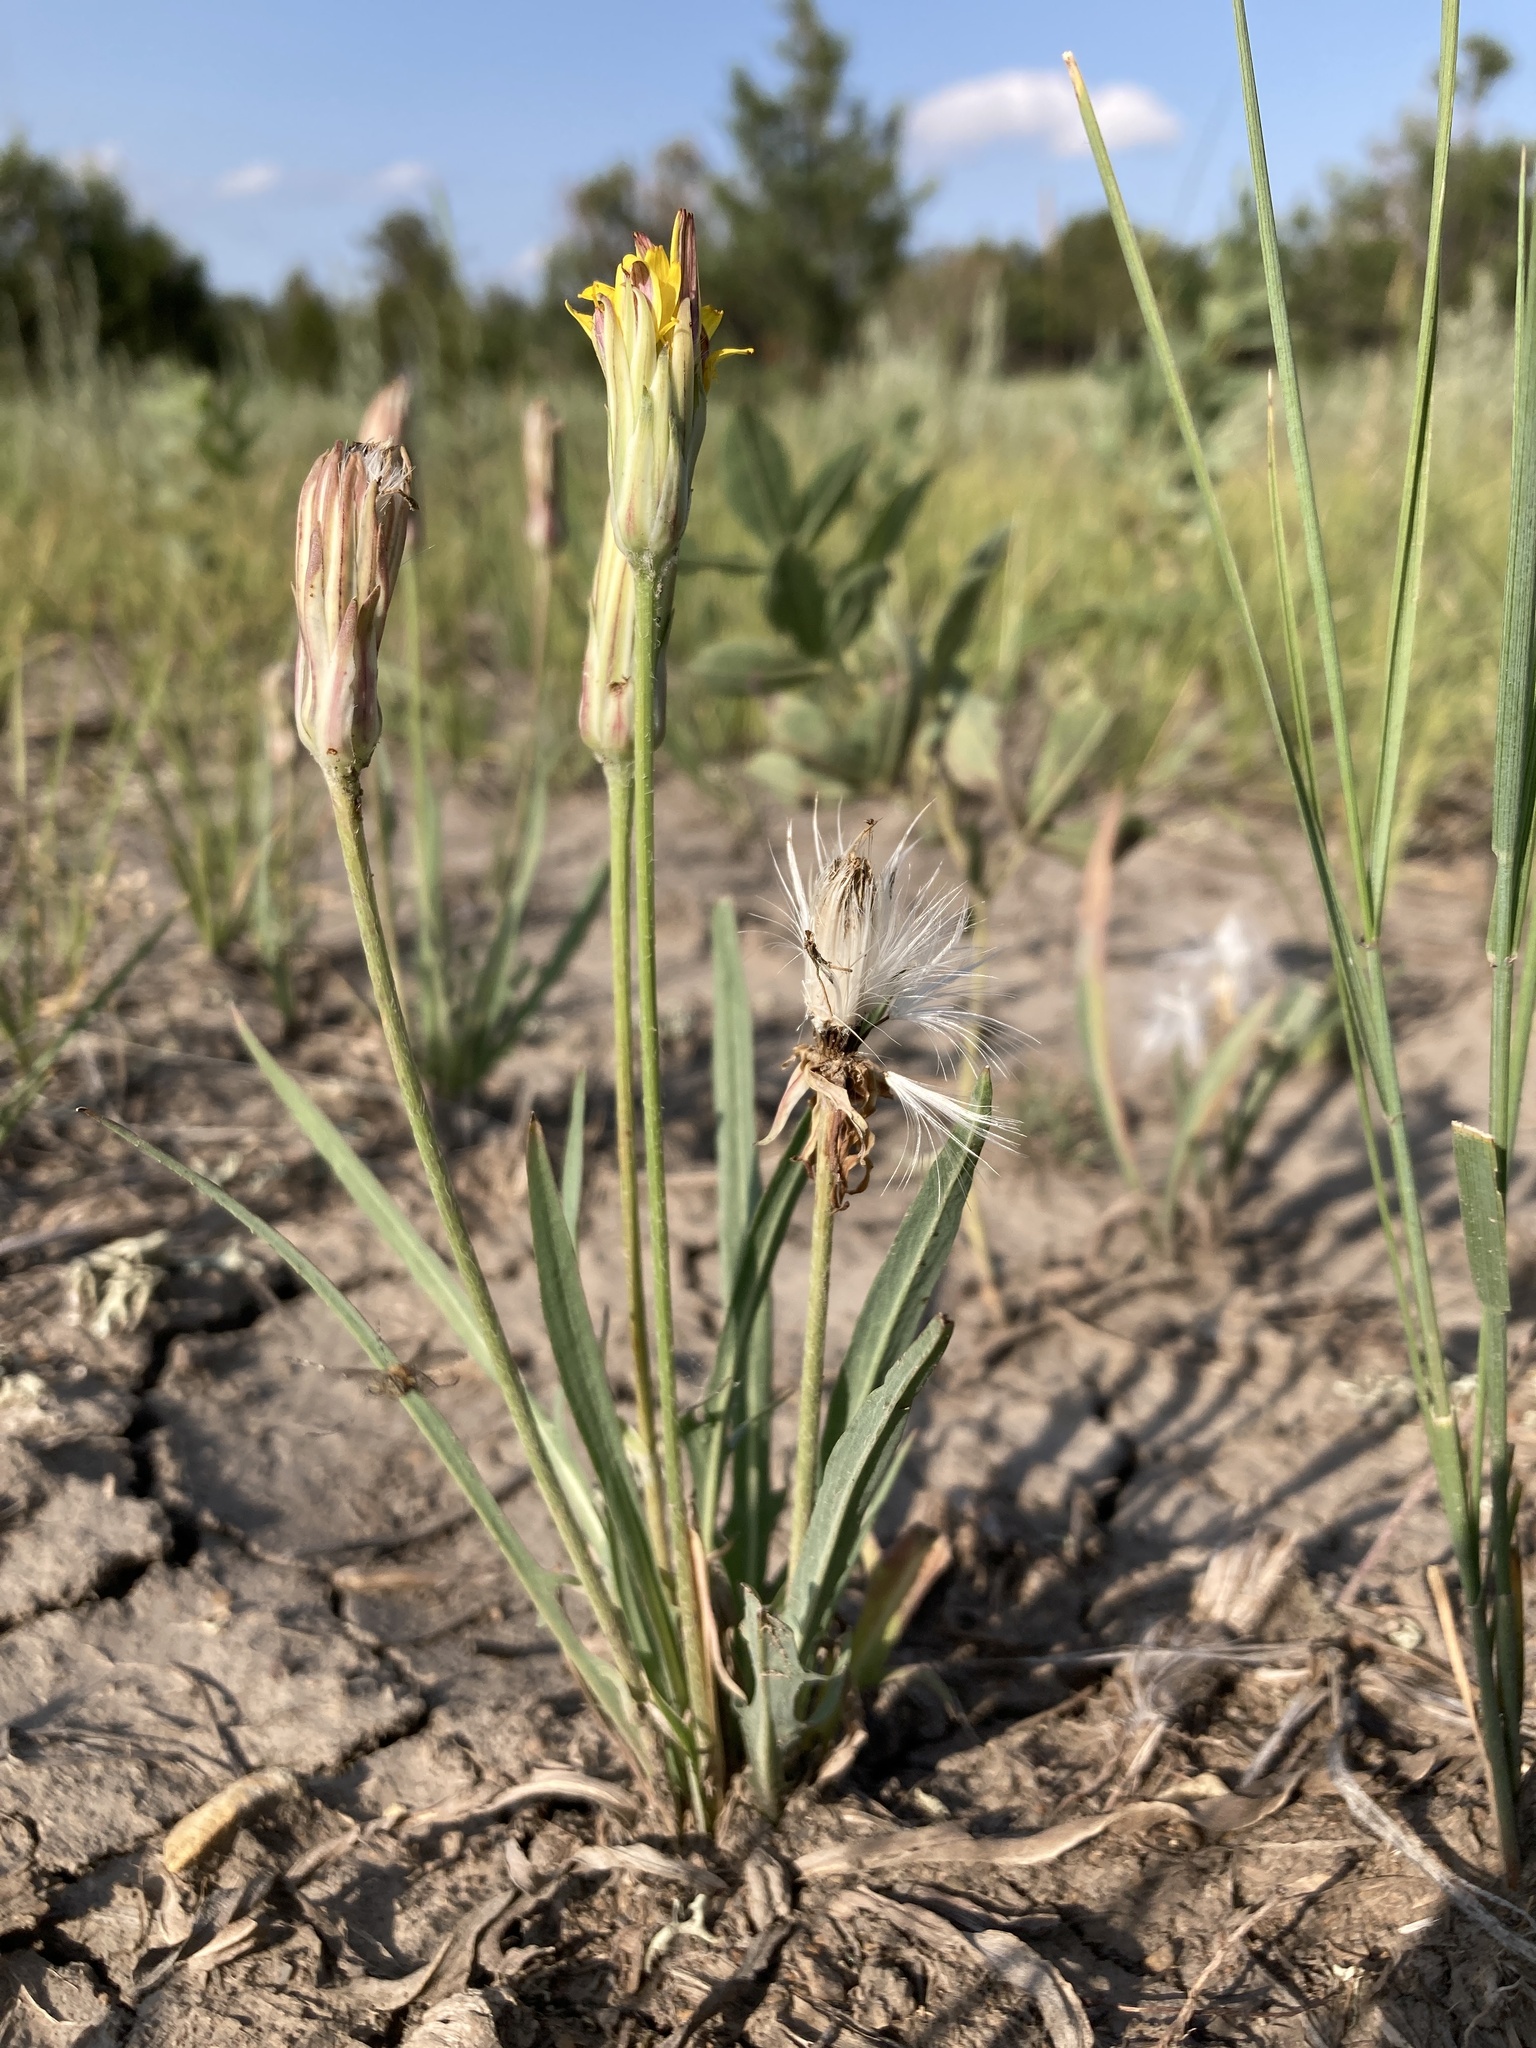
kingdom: Plantae
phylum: Tracheophyta
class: Magnoliopsida
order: Asterales
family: Asteraceae
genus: Agoseris
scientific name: Agoseris glauca
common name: Prairie agoseris
